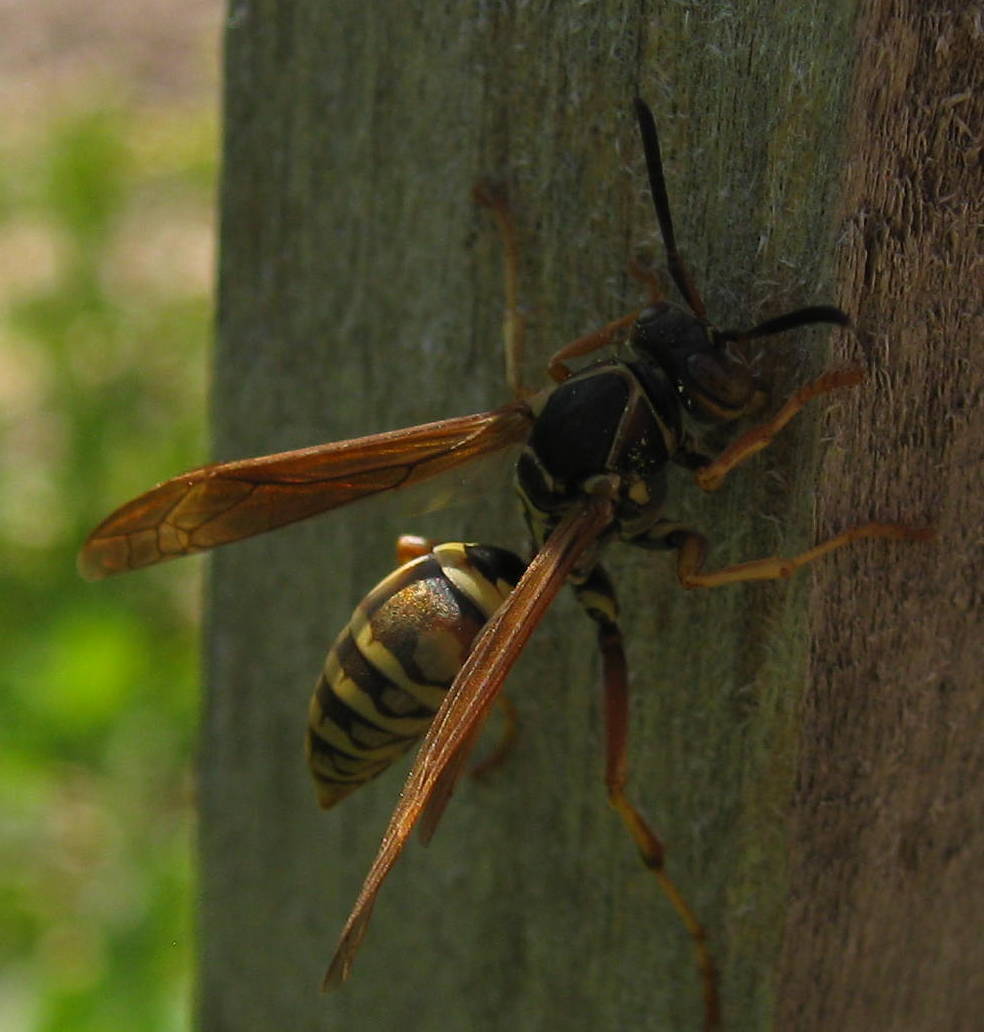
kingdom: Animalia
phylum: Arthropoda
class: Insecta
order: Hymenoptera
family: Eumenidae
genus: Polistes
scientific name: Polistes fuscatus
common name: Dark paper wasp
